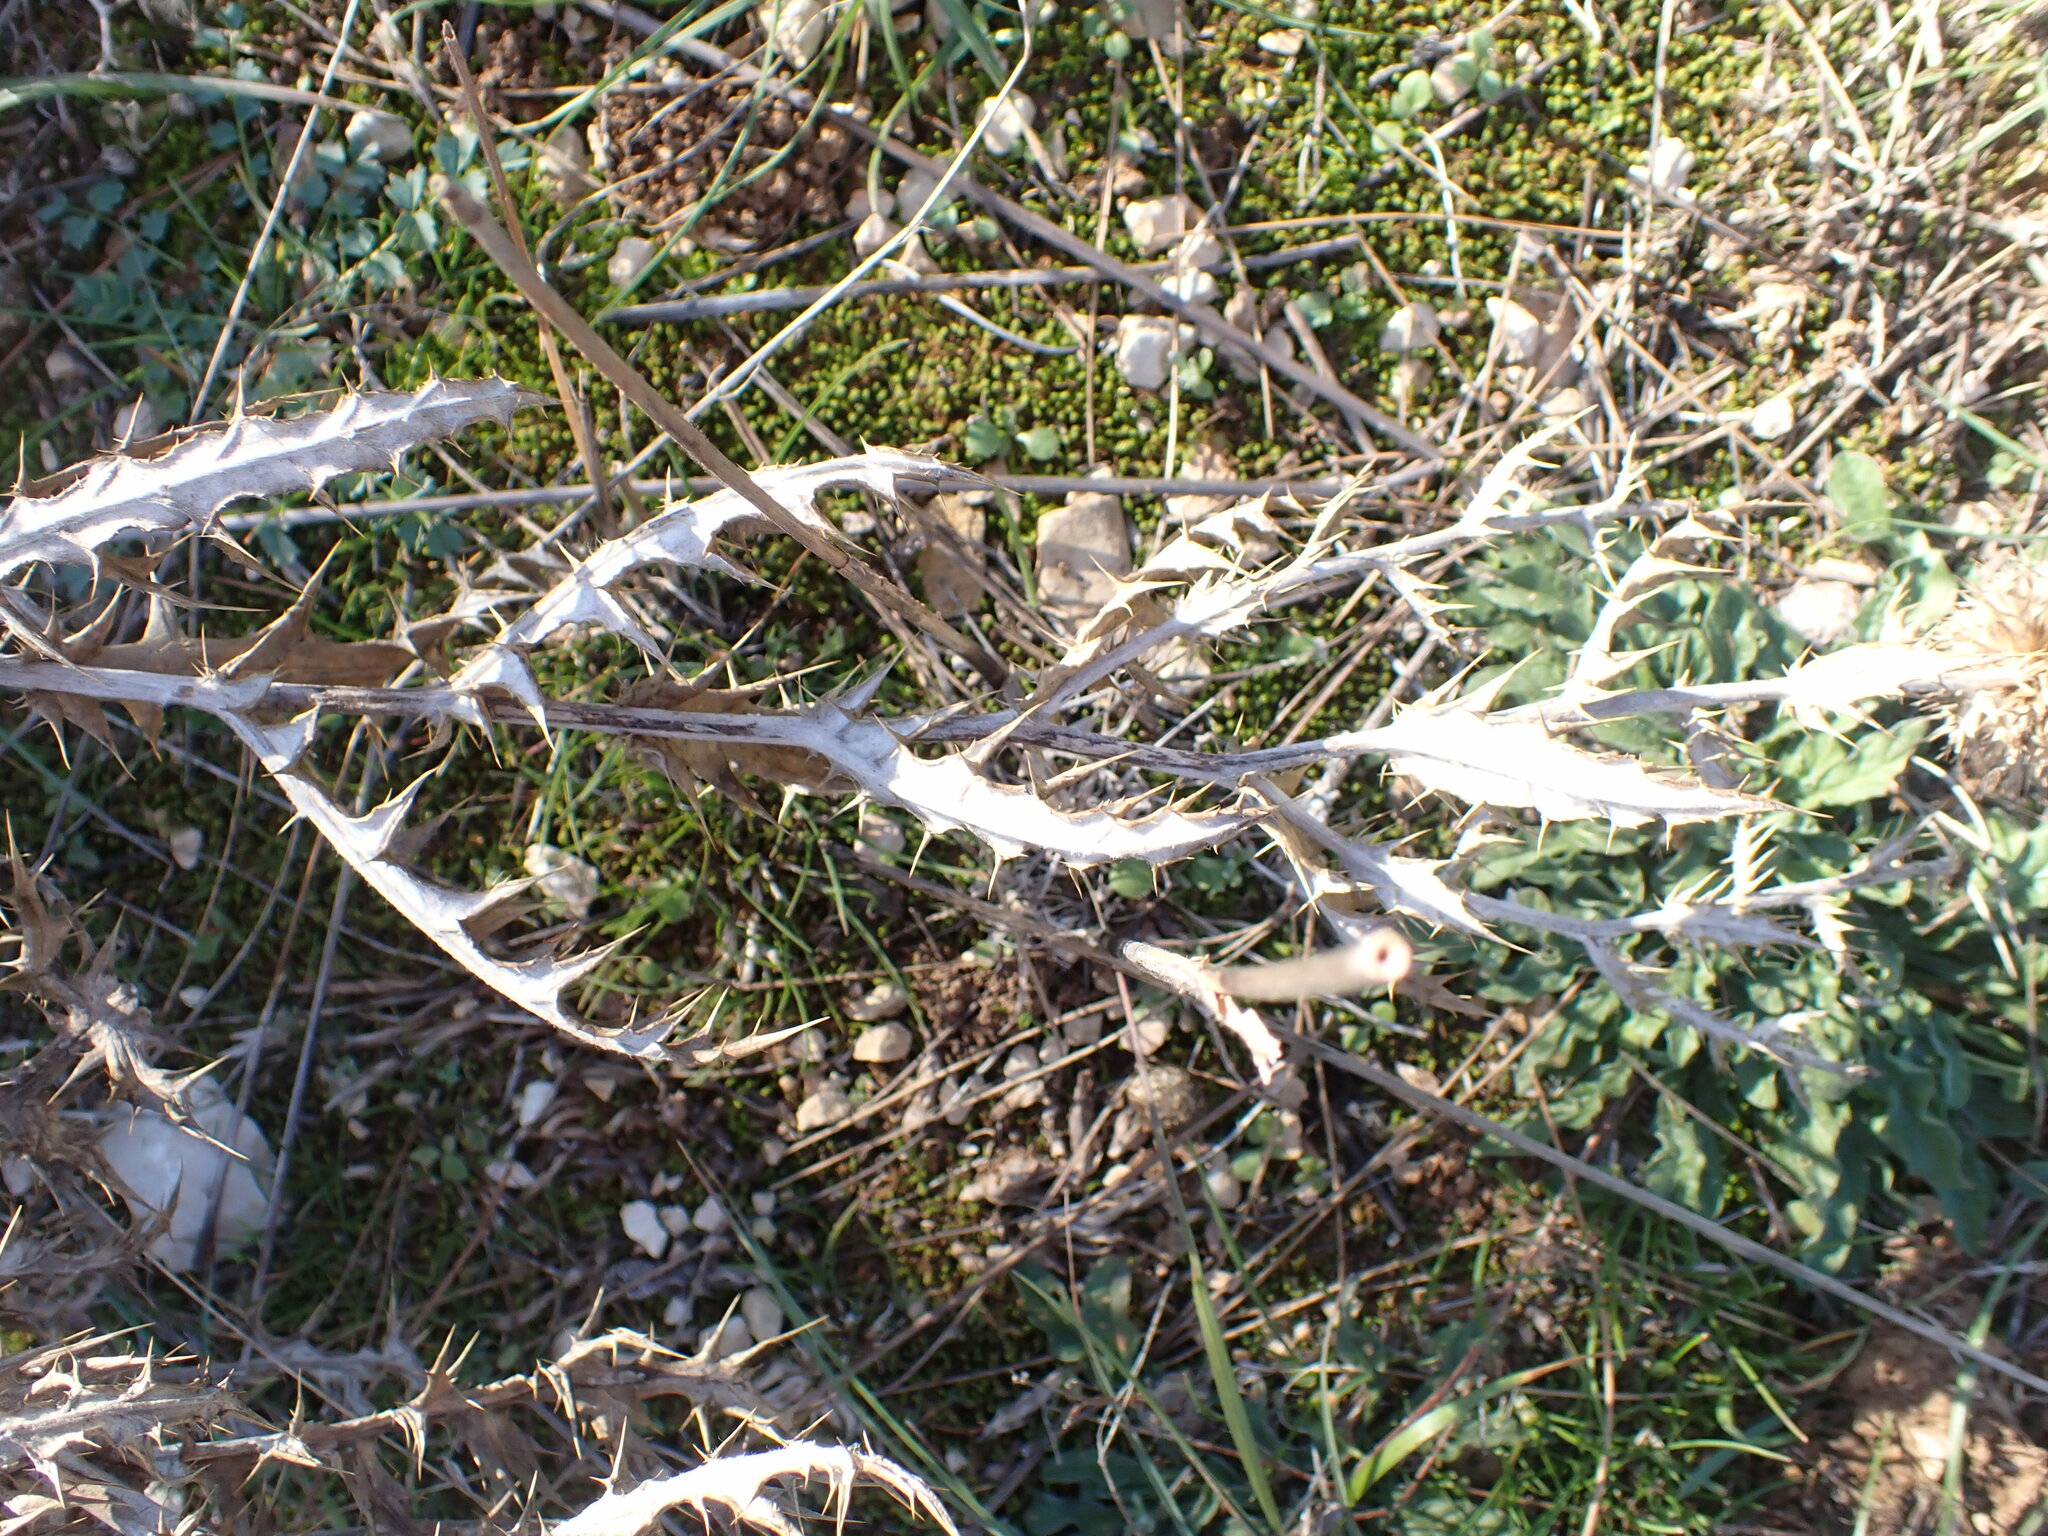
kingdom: Plantae
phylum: Tracheophyta
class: Magnoliopsida
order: Asterales
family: Asteraceae
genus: Echinops
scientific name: Echinops ritro
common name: Globe thistle
